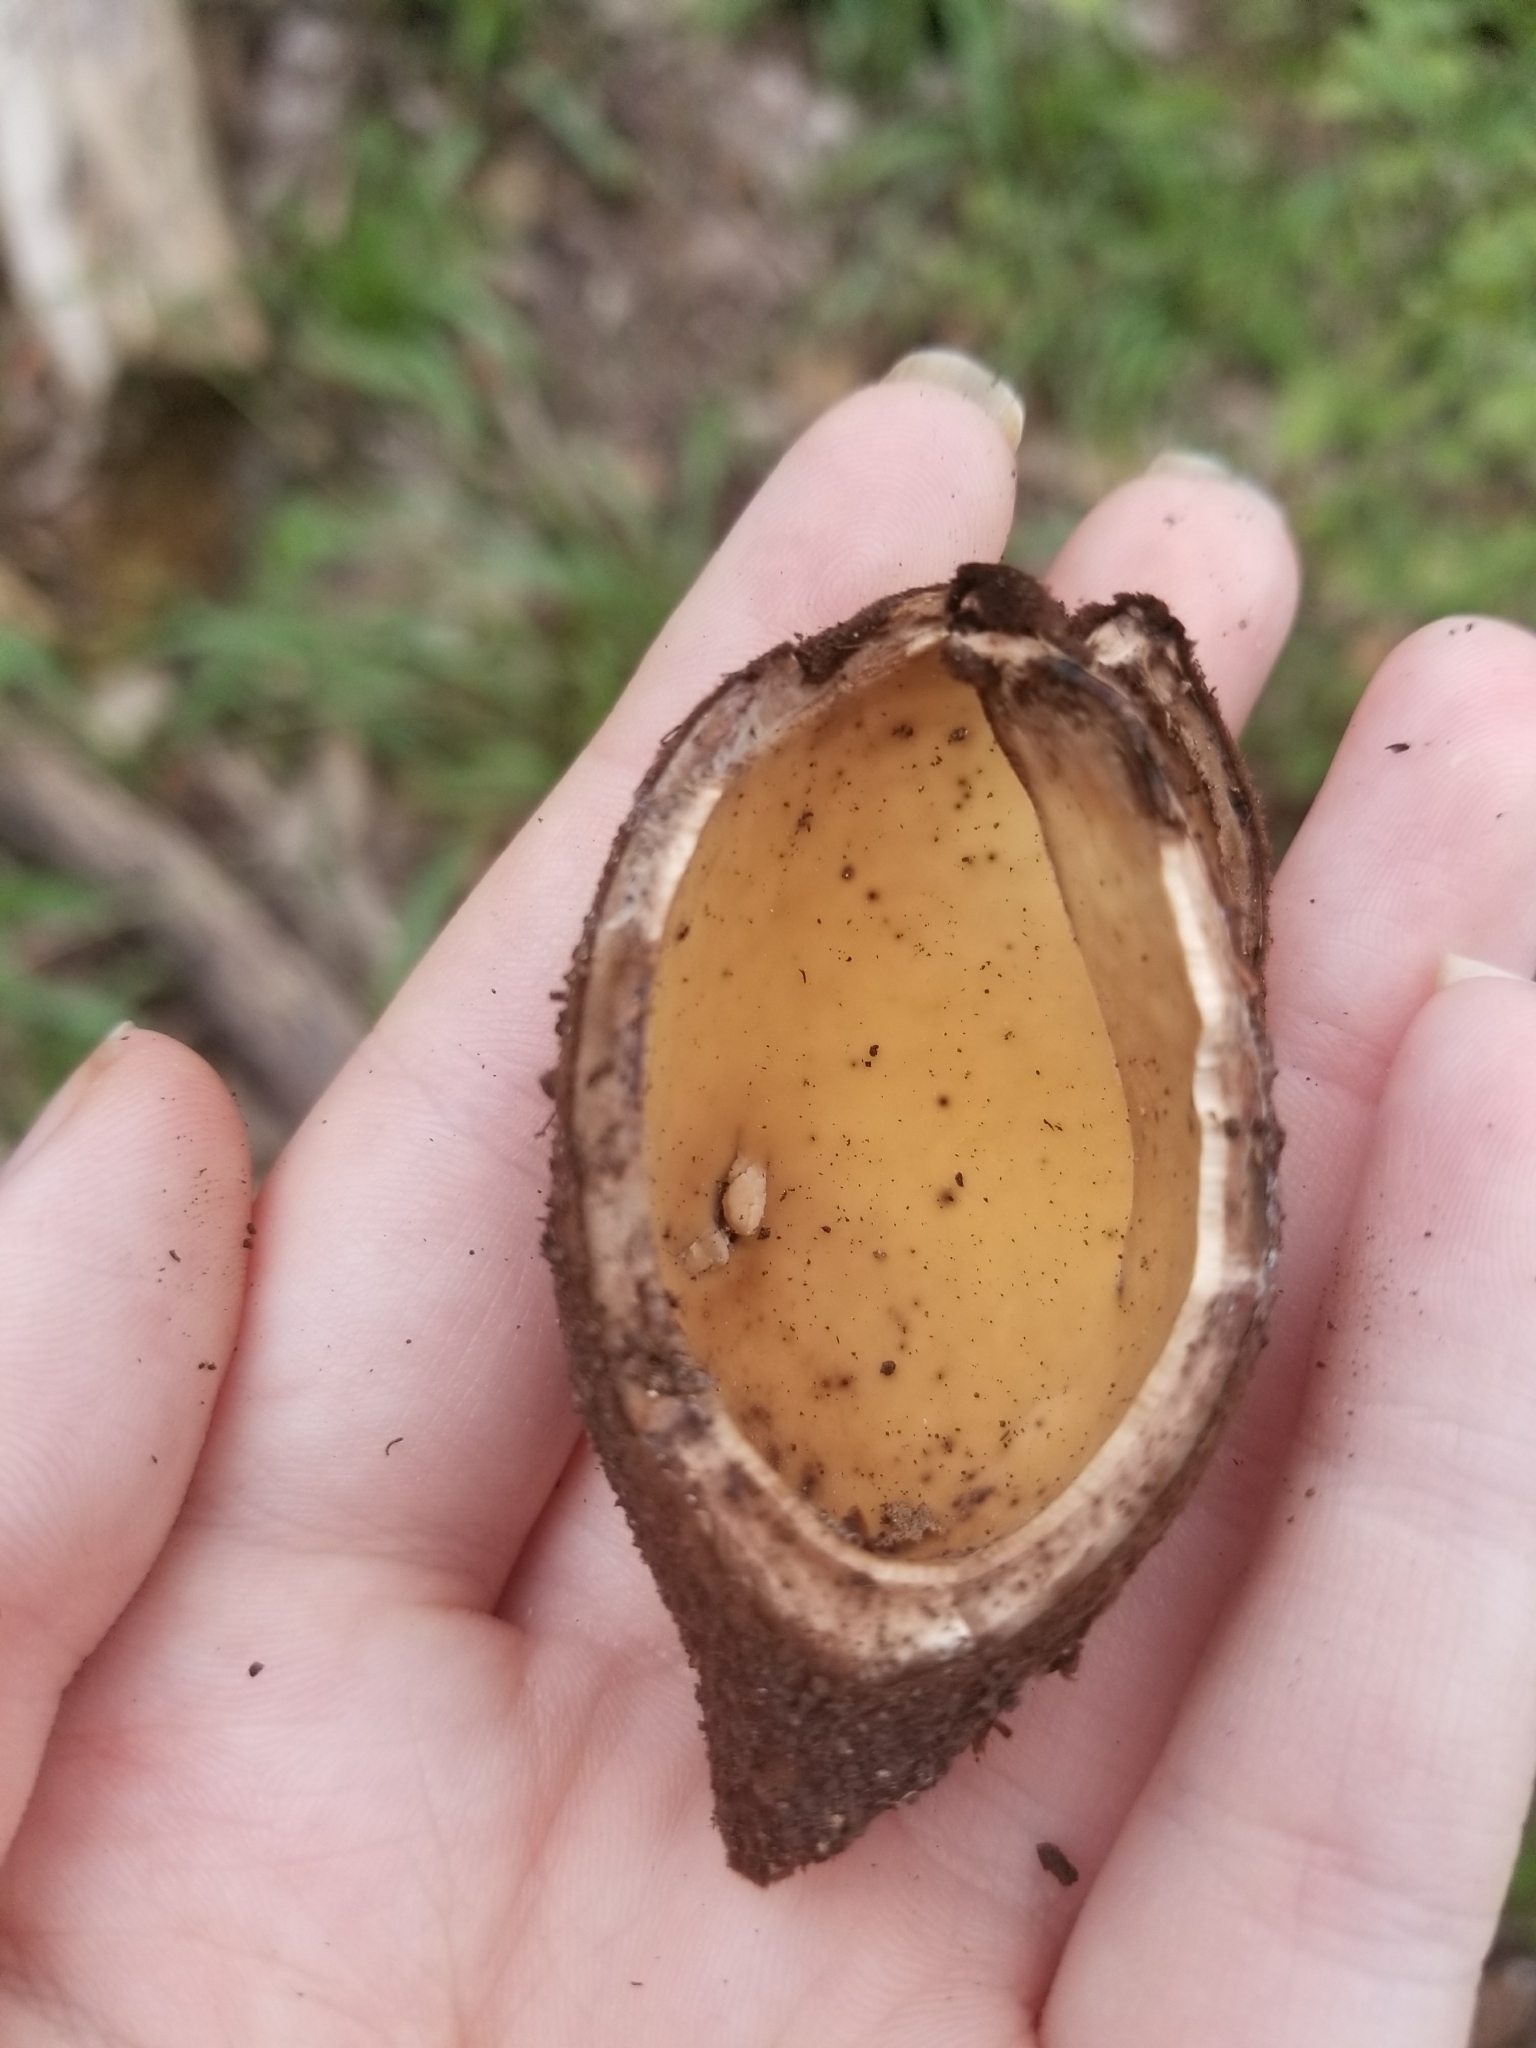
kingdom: Fungi
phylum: Ascomycota
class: Pezizomycetes
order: Pezizales
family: Chorioactidaceae
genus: Chorioactis
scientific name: Chorioactis geaster
